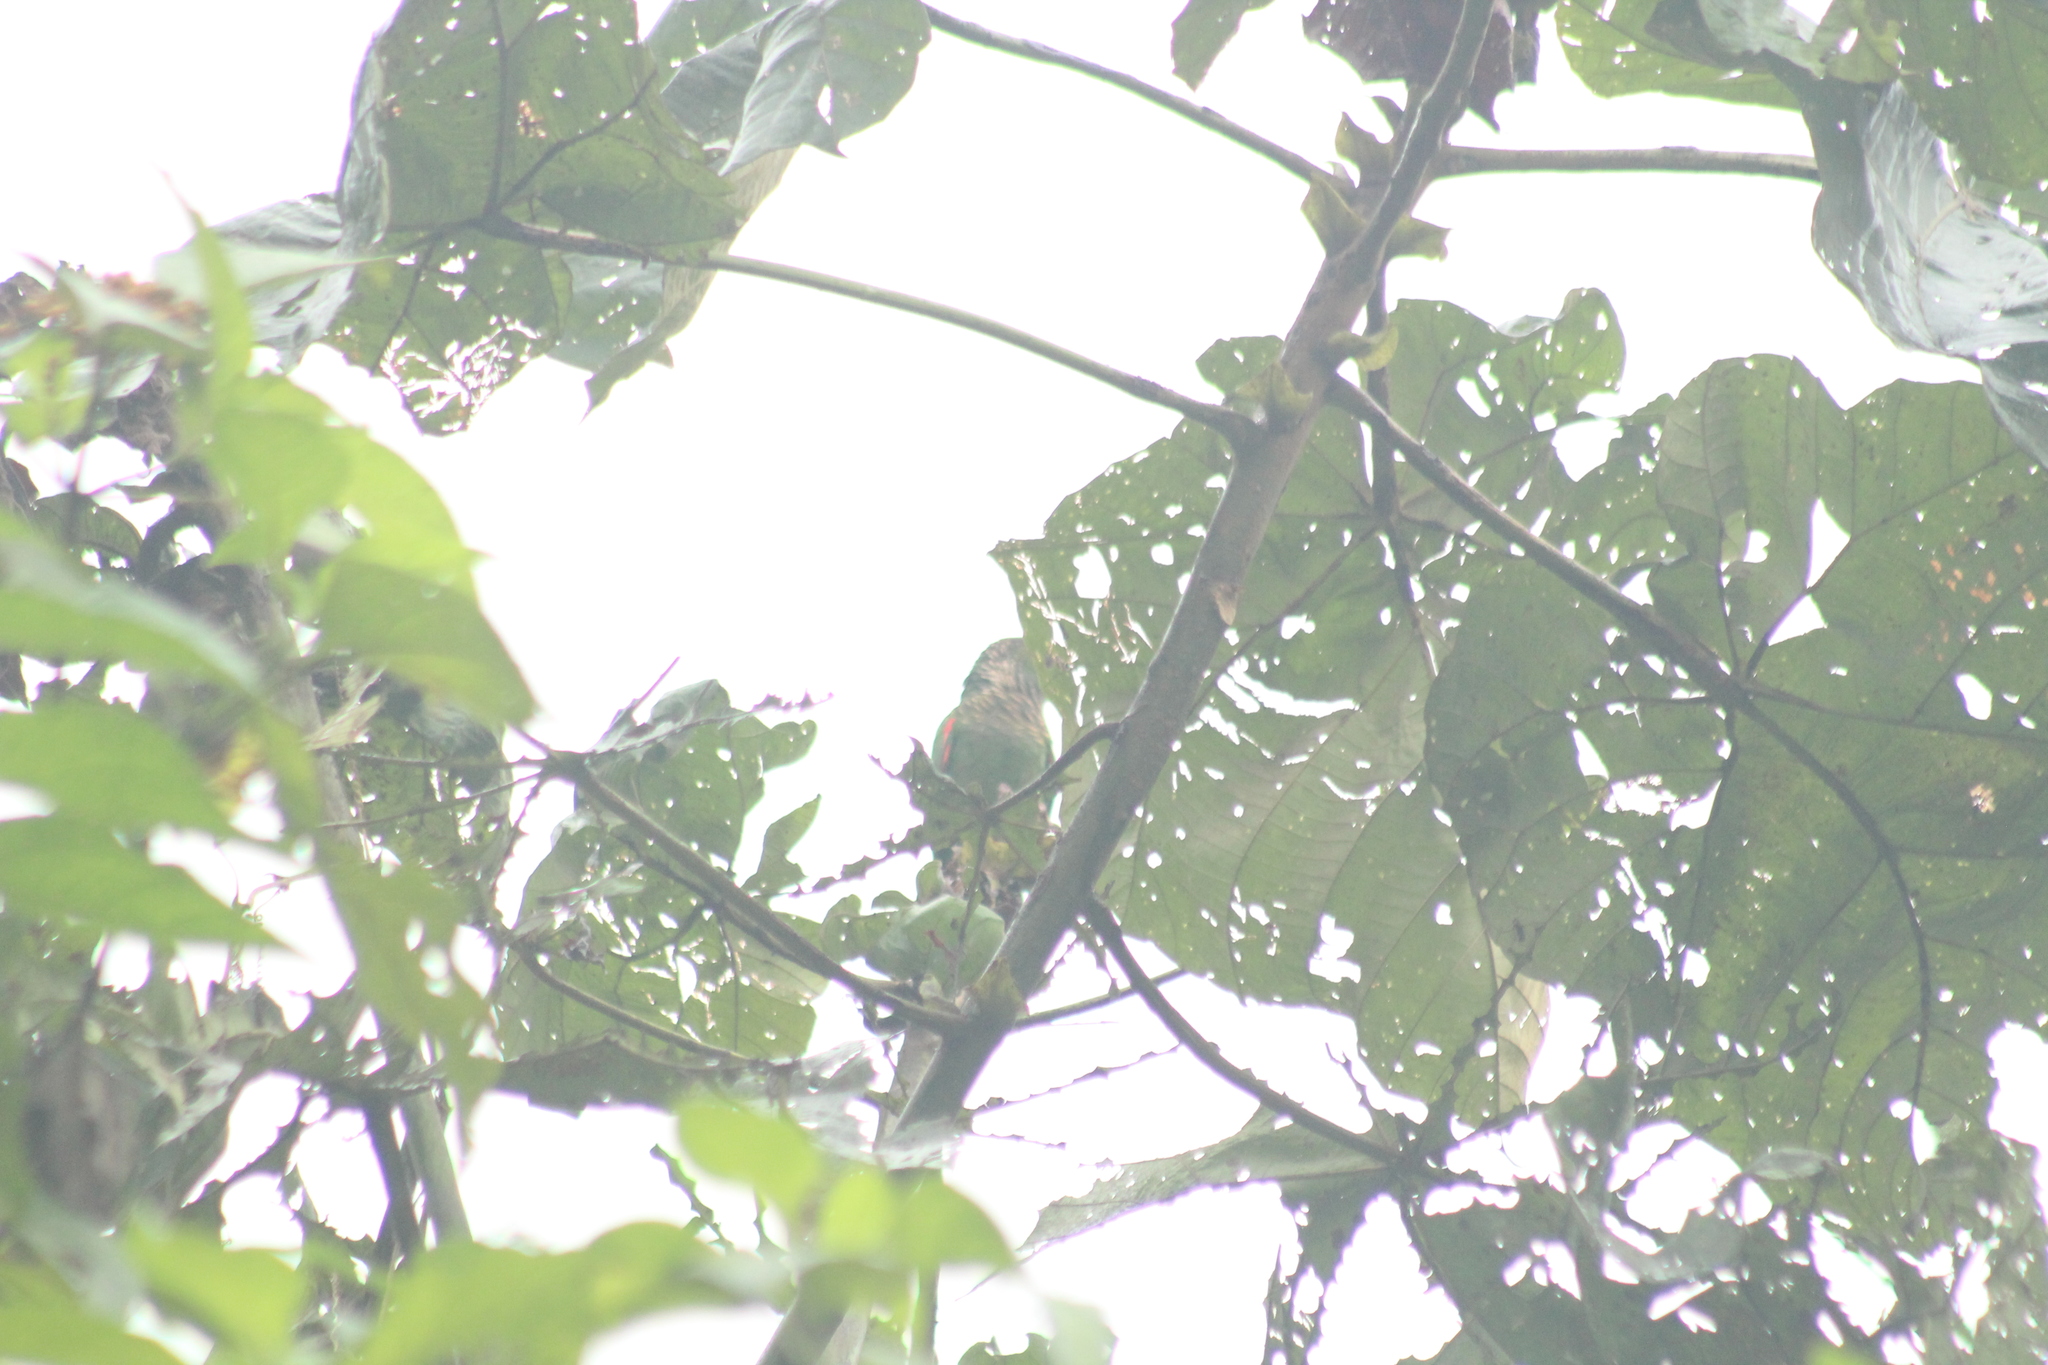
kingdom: Animalia
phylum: Chordata
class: Aves
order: Psittaciformes
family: Psittacidae
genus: Pyrrhura
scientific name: Pyrrhura melanura
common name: Maroon-tailed parakeet
